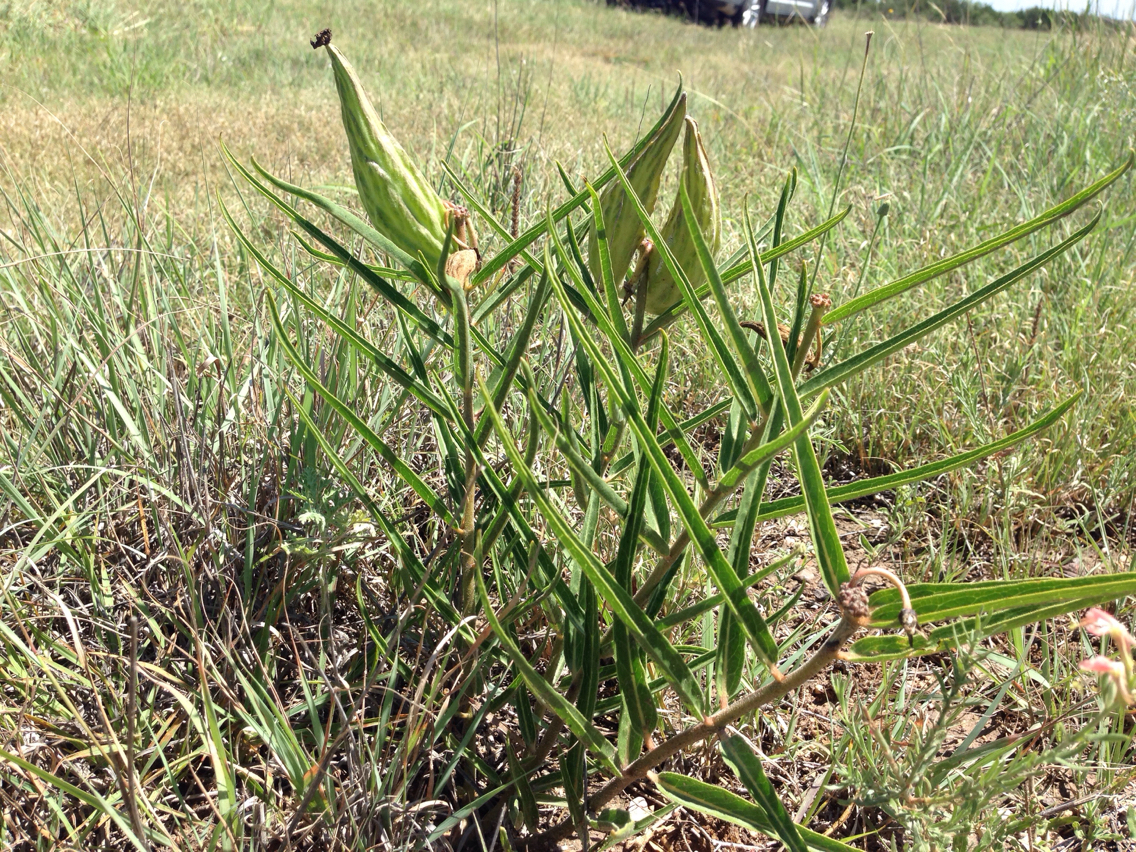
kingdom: Plantae
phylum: Tracheophyta
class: Magnoliopsida
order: Gentianales
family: Apocynaceae
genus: Asclepias
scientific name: Asclepias asperula
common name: Antelope horns
